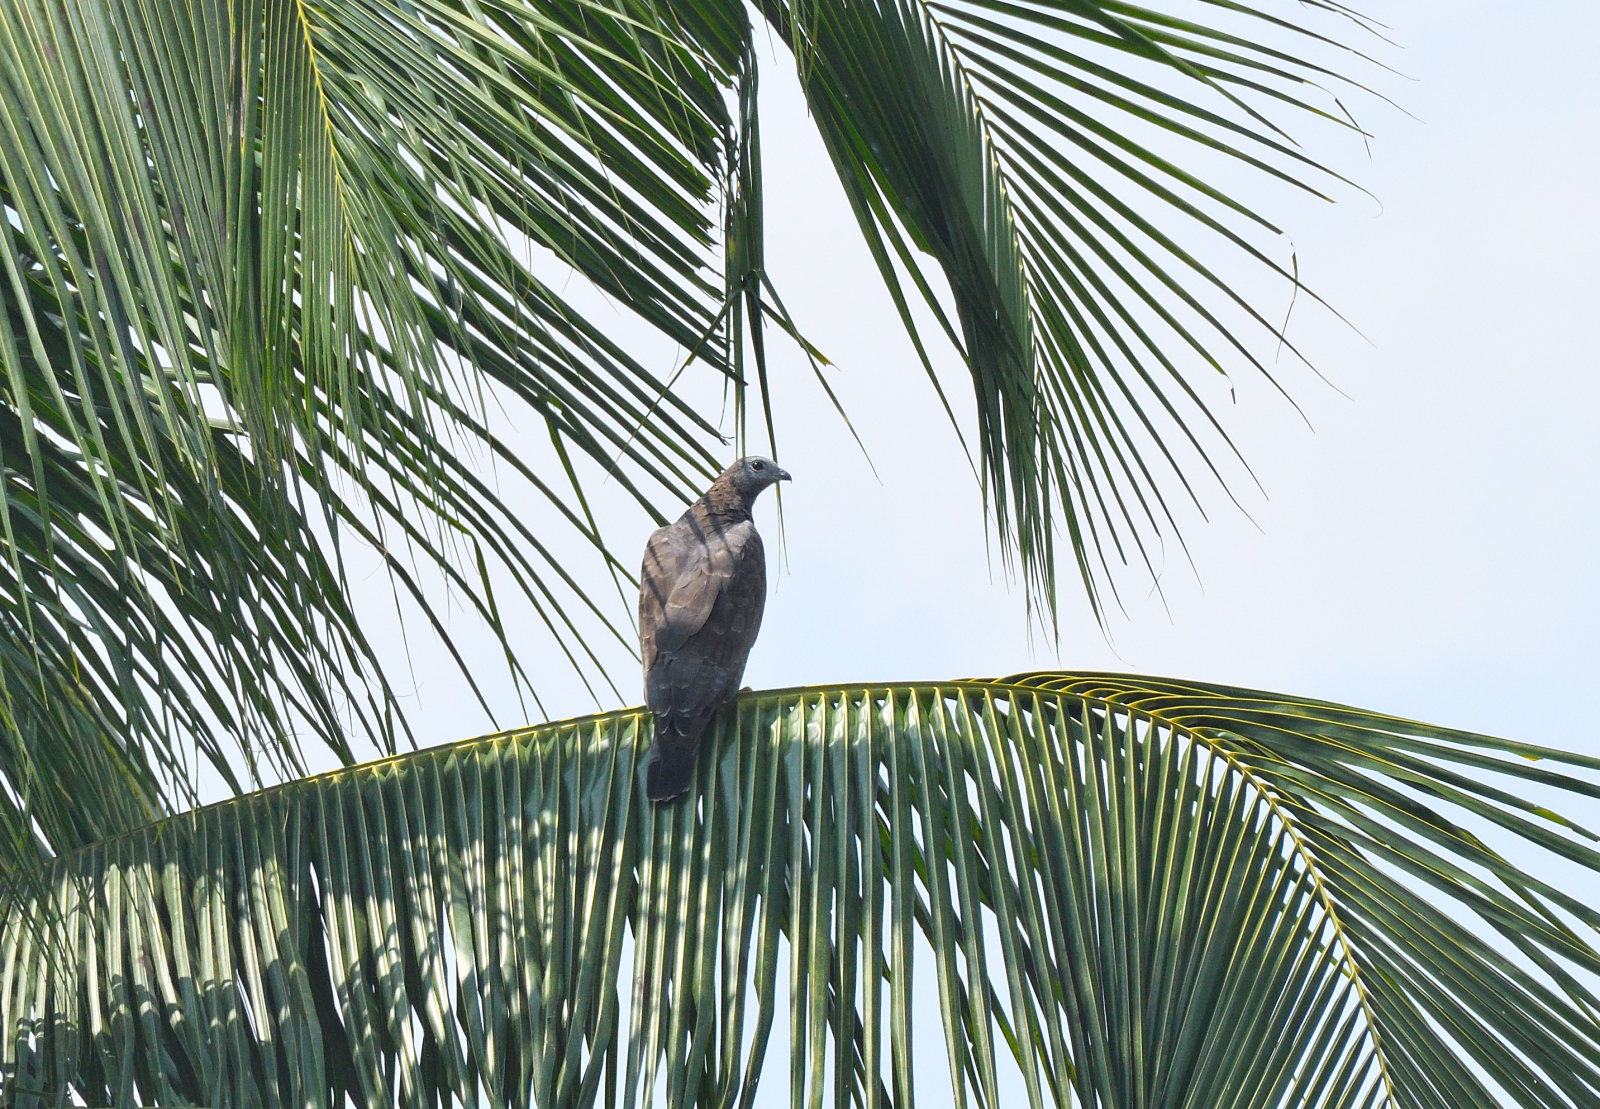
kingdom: Animalia
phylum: Chordata
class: Aves
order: Accipitriformes
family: Accipitridae
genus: Pernis
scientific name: Pernis ptilorhynchus
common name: Crested honey buzzard
